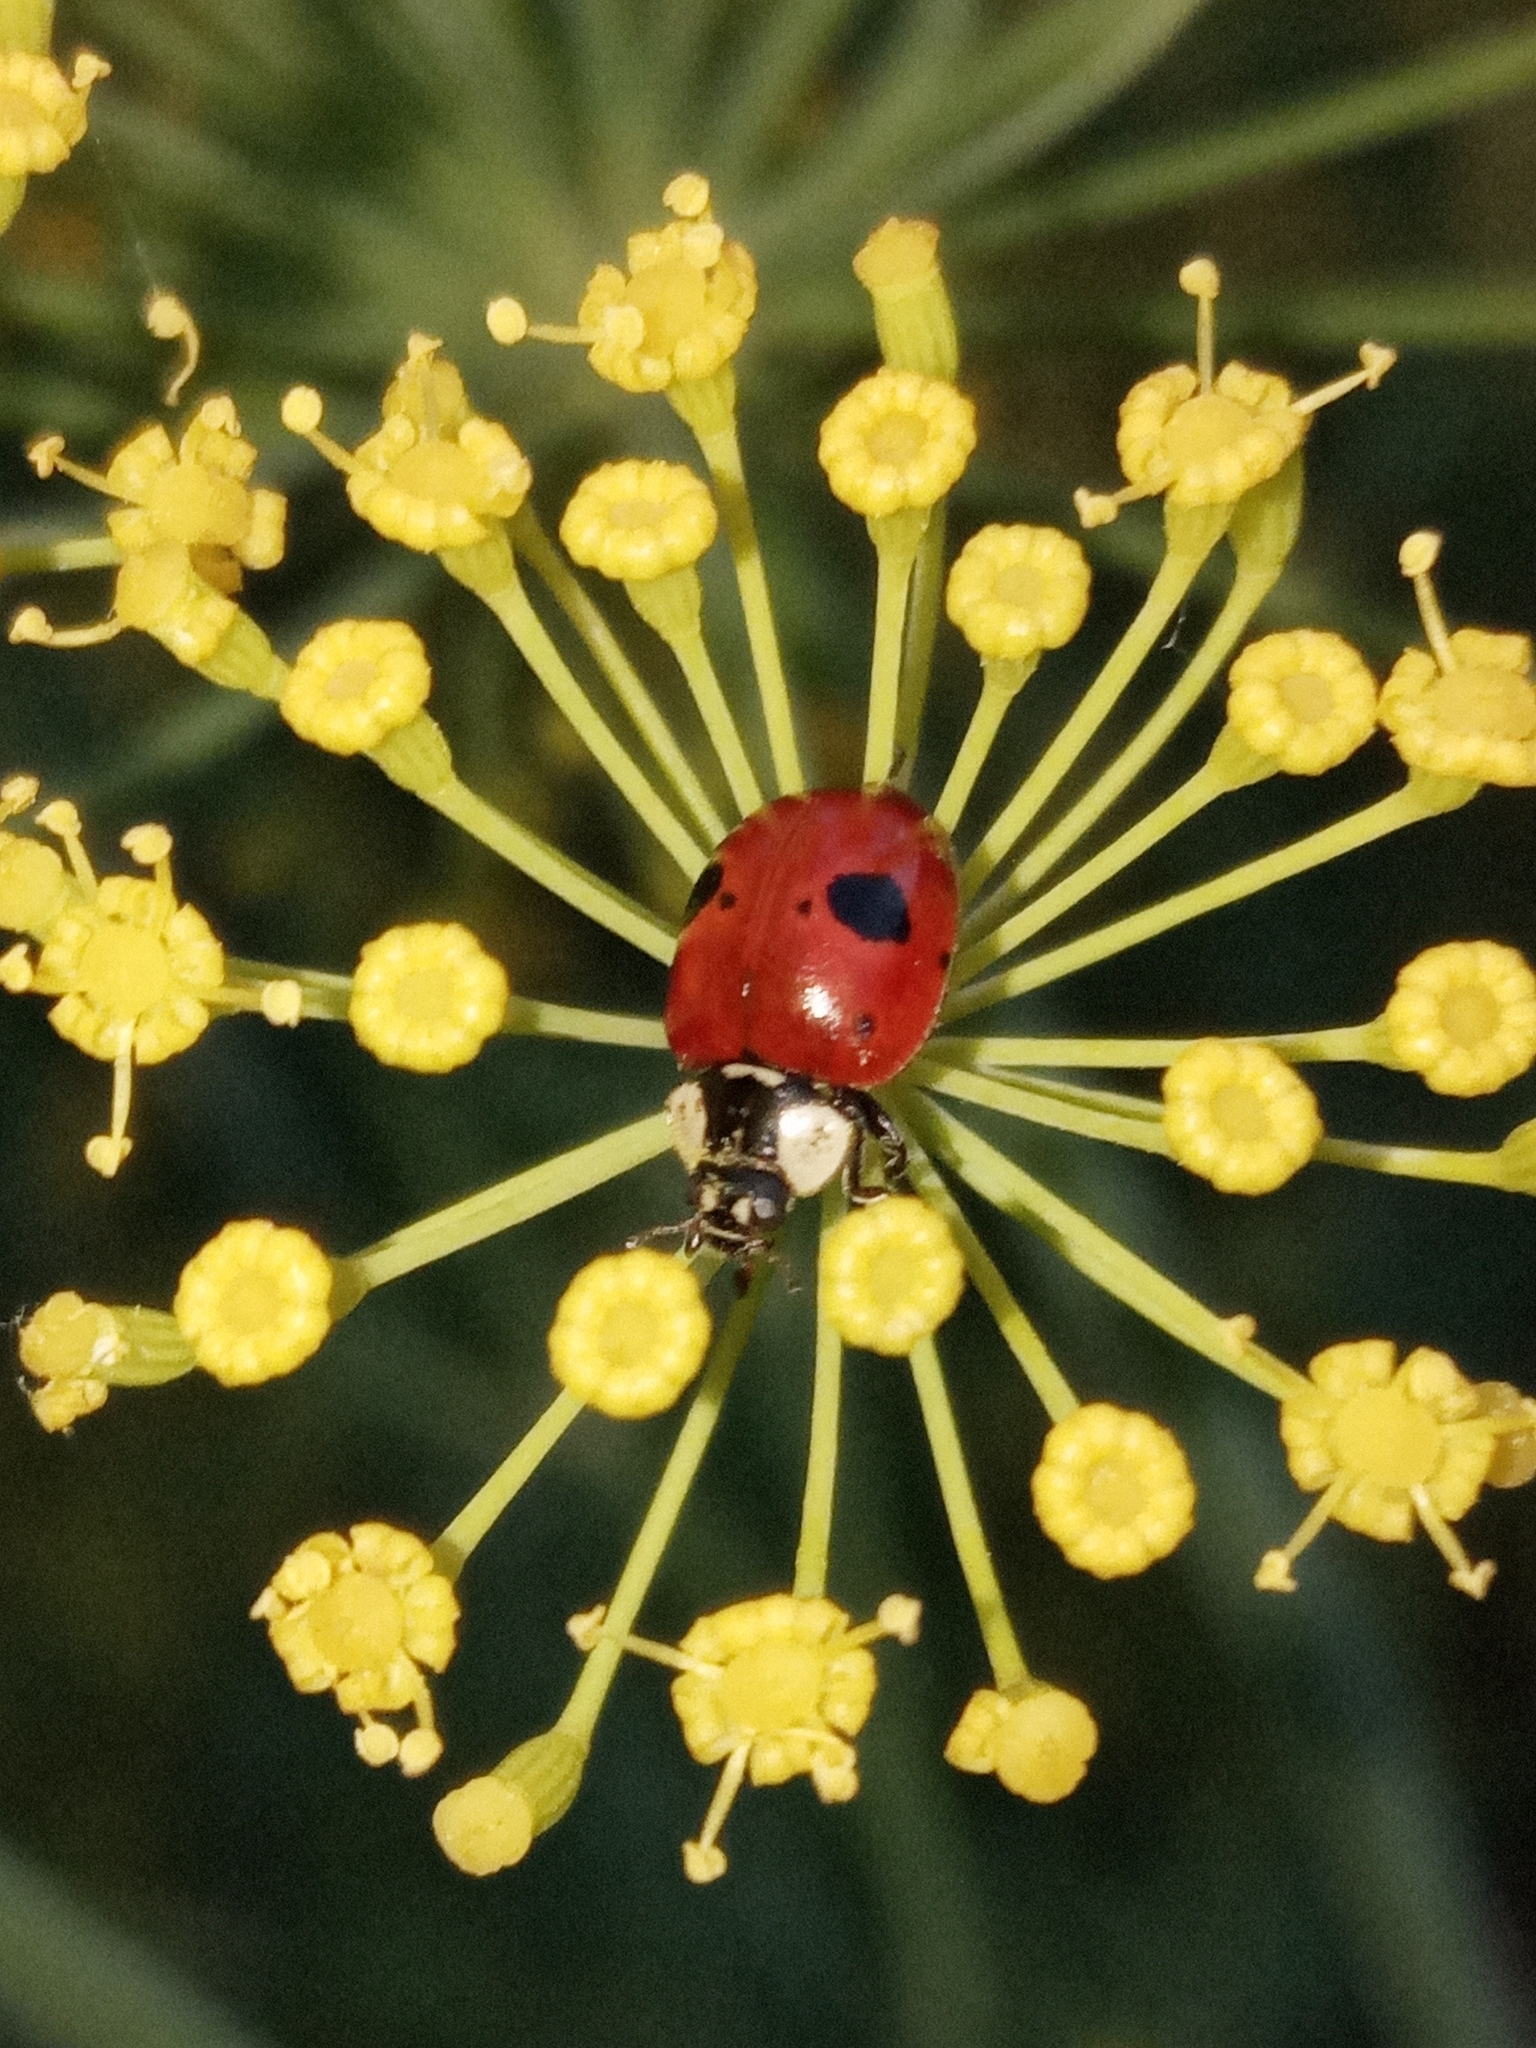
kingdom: Animalia
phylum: Arthropoda
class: Insecta
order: Coleoptera
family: Coccinellidae
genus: Adalia
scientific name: Adalia bipunctata
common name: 2-spot ladybird
